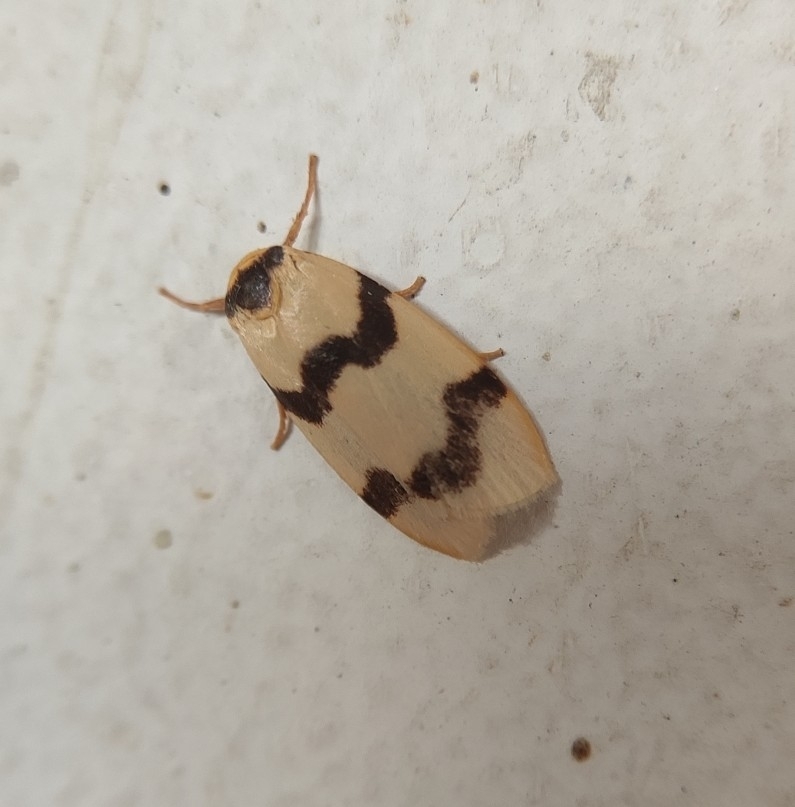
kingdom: Animalia
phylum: Arthropoda
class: Insecta
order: Lepidoptera
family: Erebidae
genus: Padenia
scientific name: Padenia transversa
